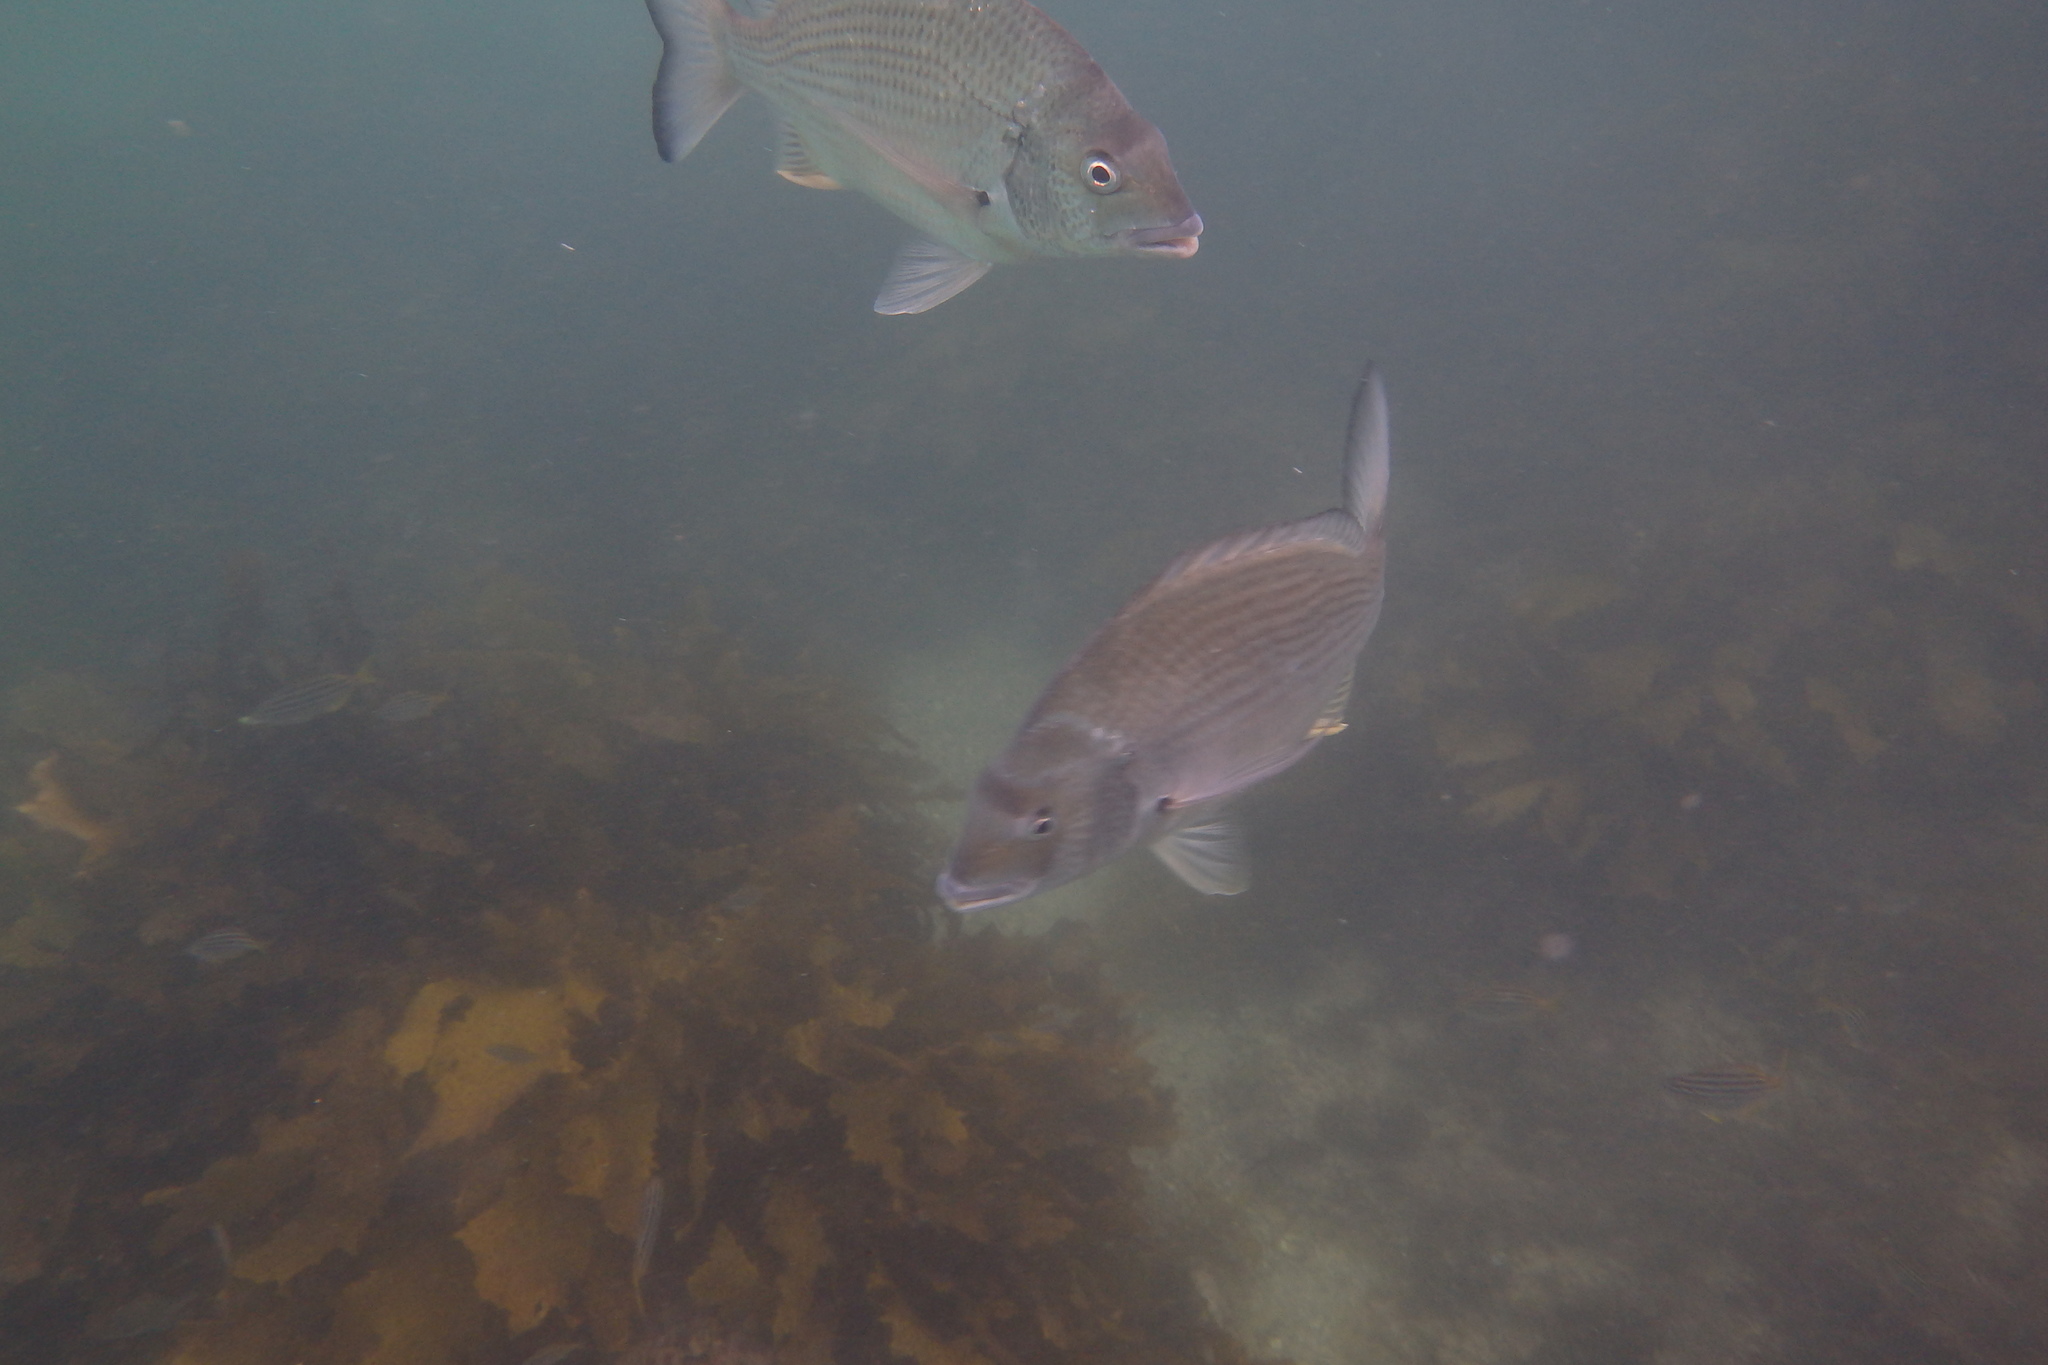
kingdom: Animalia
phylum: Chordata
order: Perciformes
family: Sparidae
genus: Acanthopagrus
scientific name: Acanthopagrus australis
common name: Surf bream
